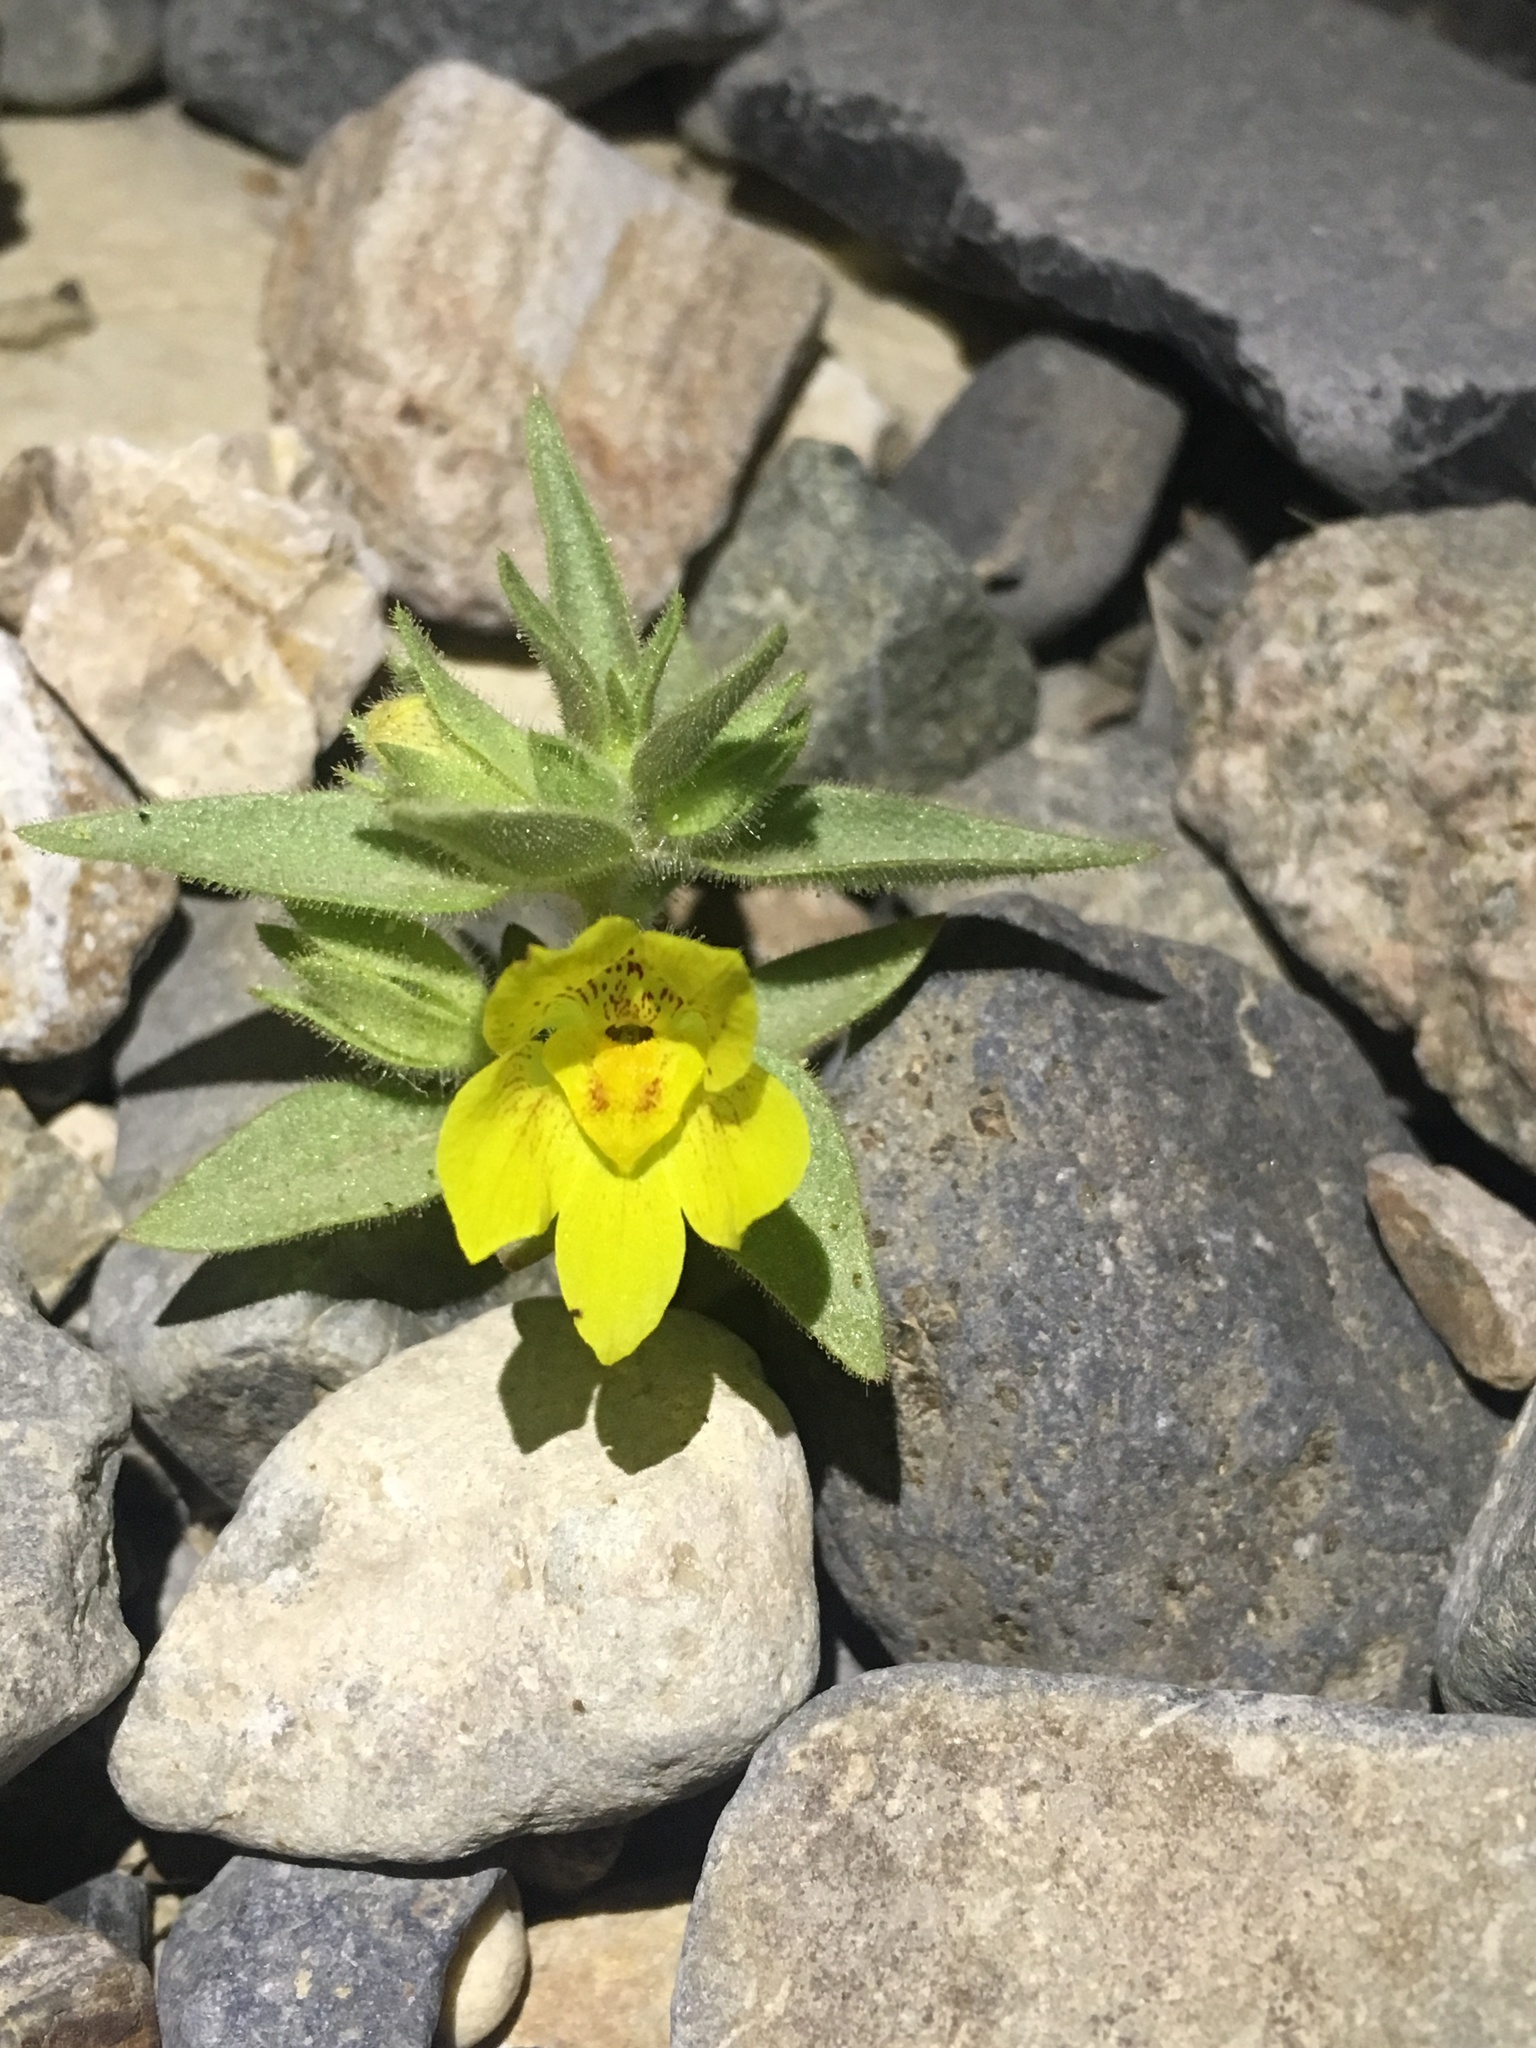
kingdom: Plantae
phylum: Tracheophyta
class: Magnoliopsida
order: Lamiales
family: Plantaginaceae
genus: Mohavea
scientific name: Mohavea breviflora
